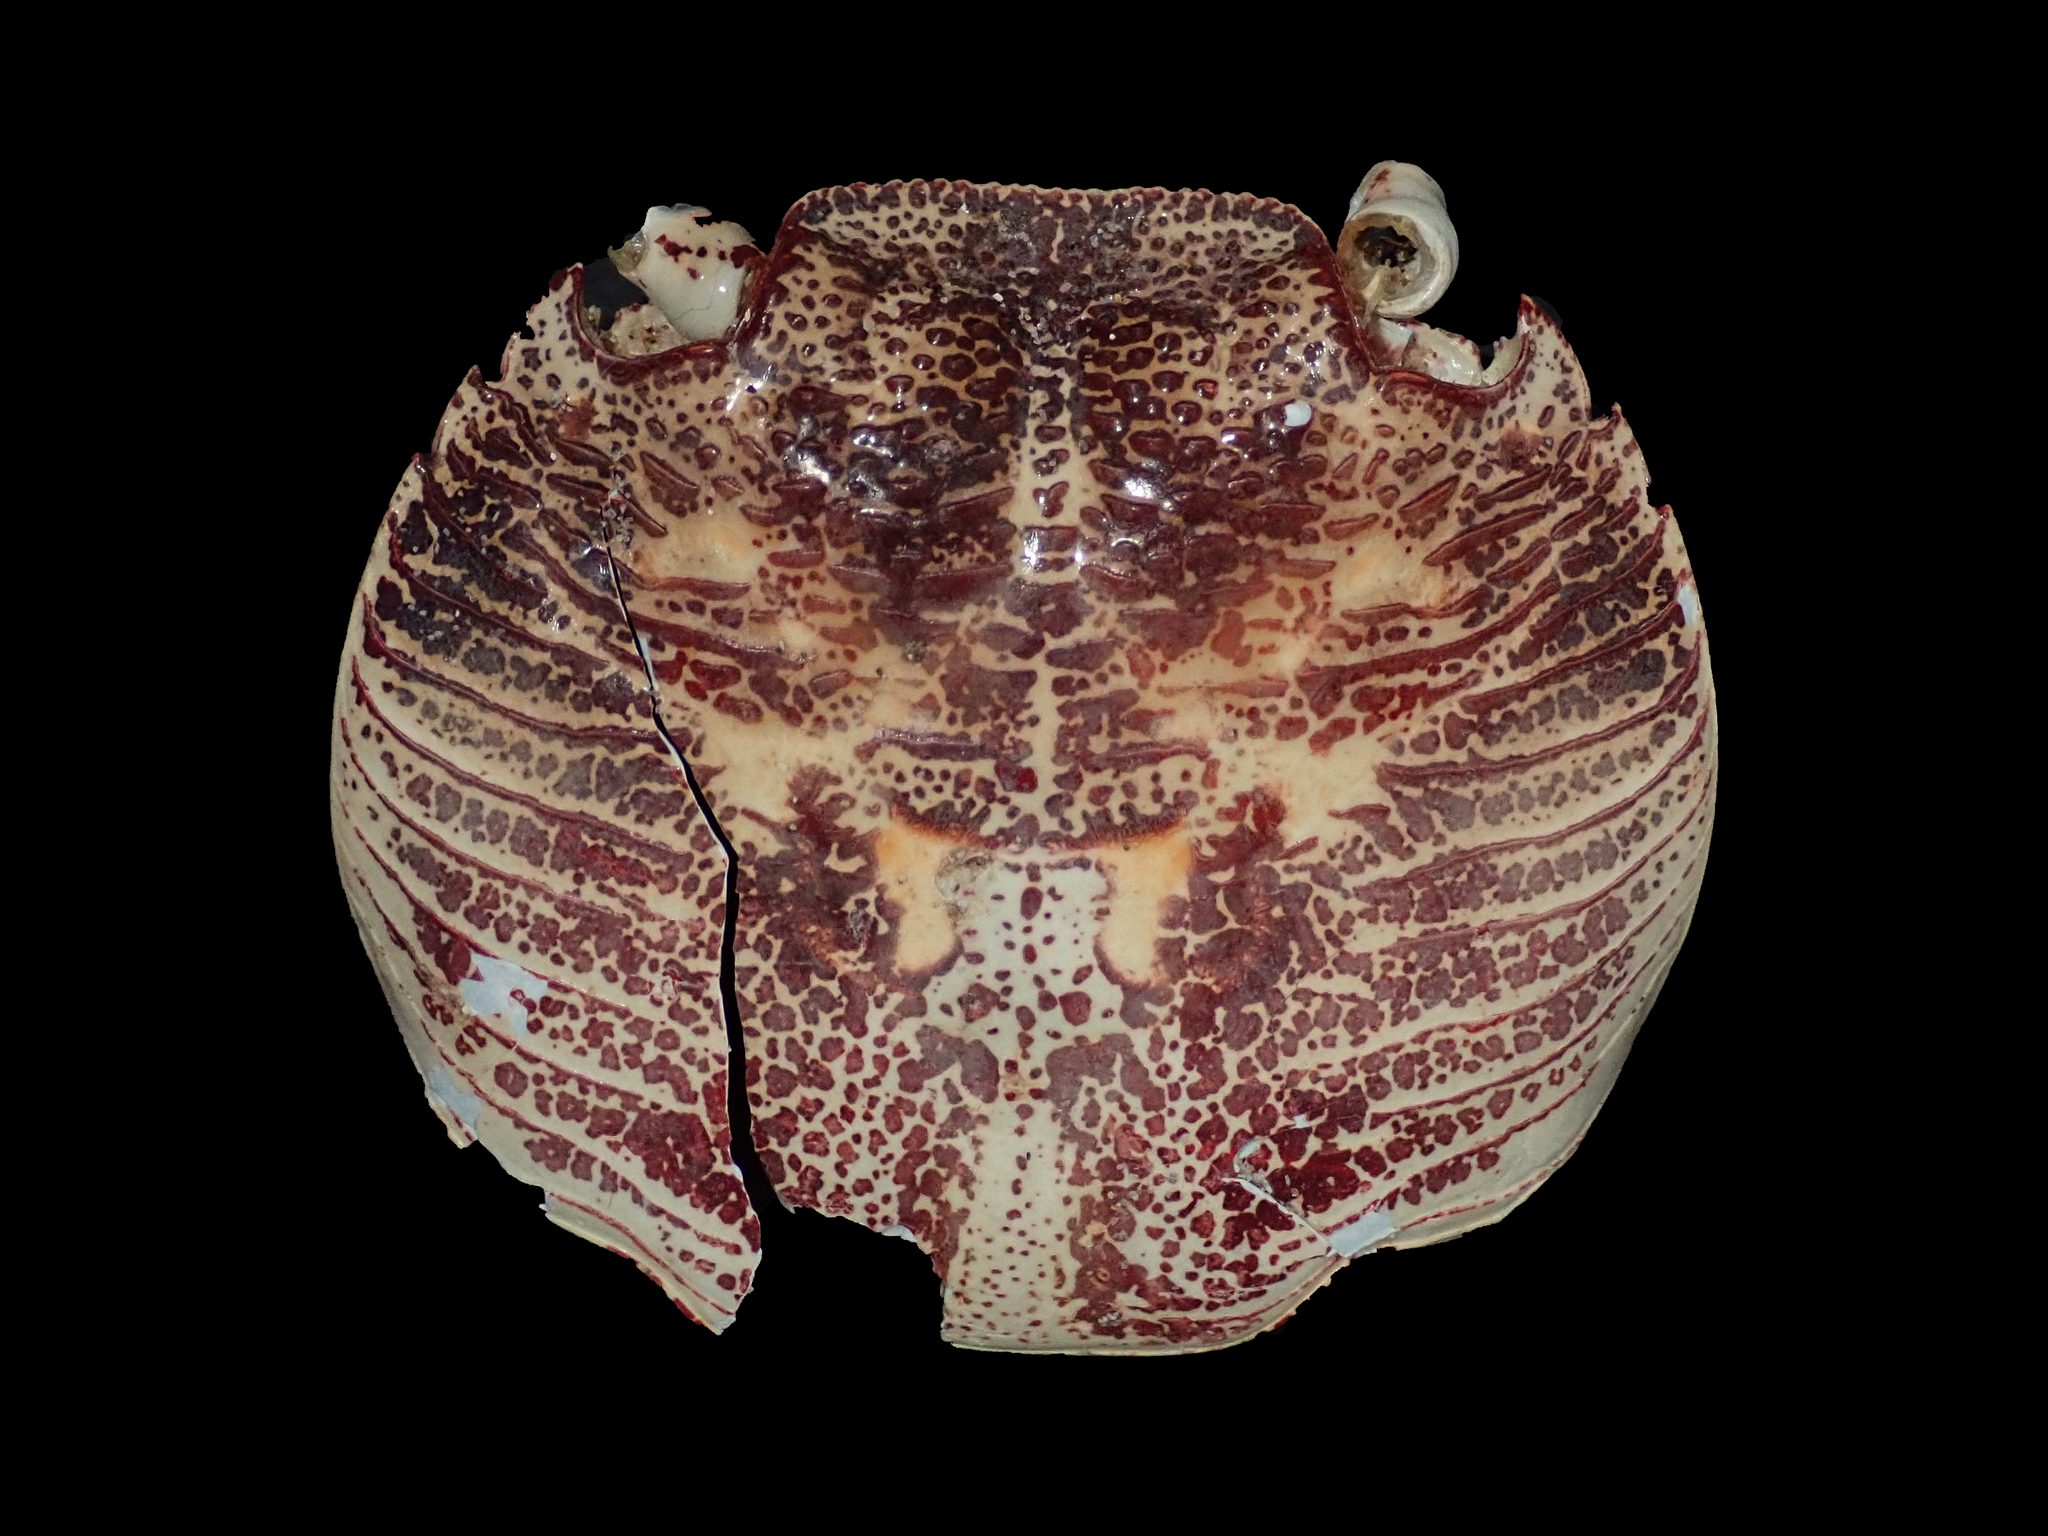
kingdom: Animalia
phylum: Arthropoda
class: Malacostraca
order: Decapoda
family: Grapsidae
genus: Leptograpsus
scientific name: Leptograpsus variegatus
